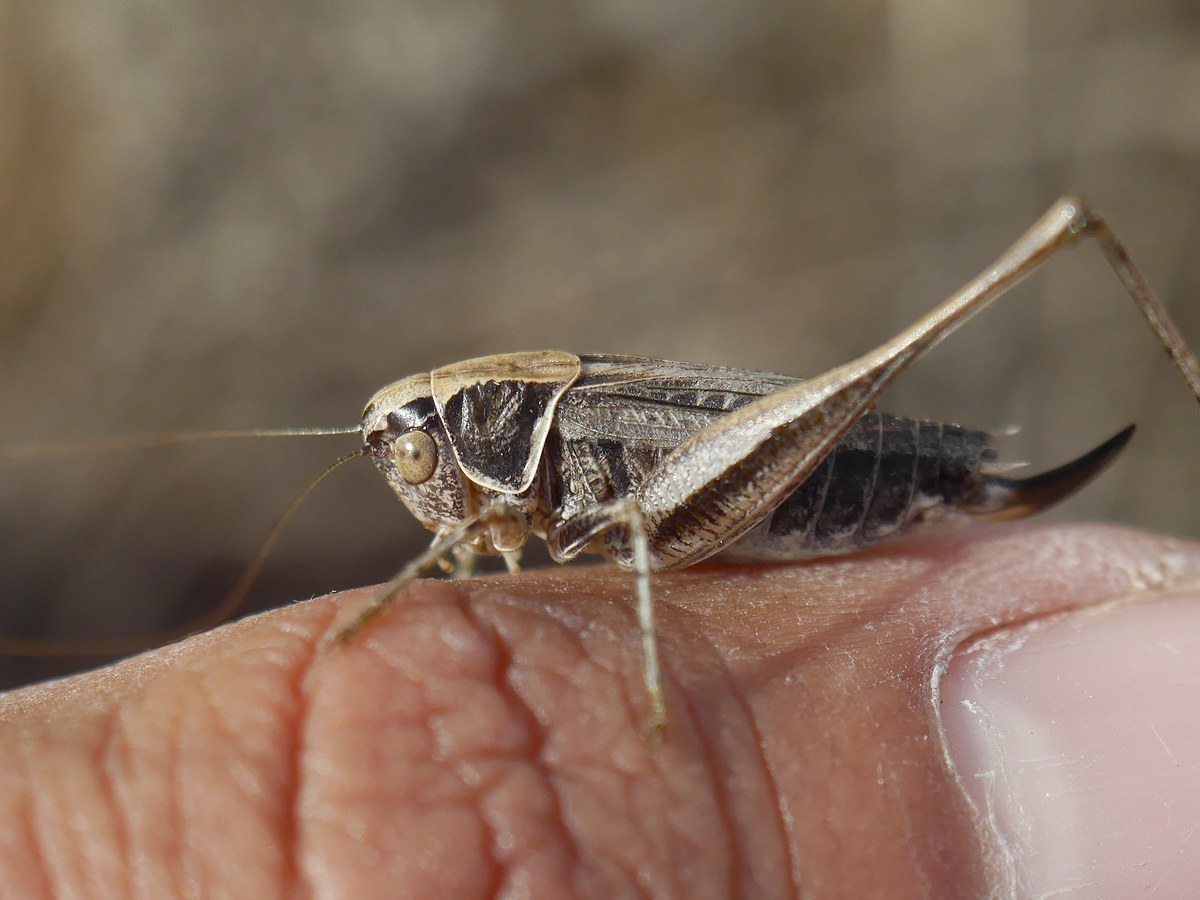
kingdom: Animalia
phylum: Arthropoda
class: Insecta
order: Orthoptera
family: Tettigoniidae
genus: Tessellana
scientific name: Tessellana veyseli
